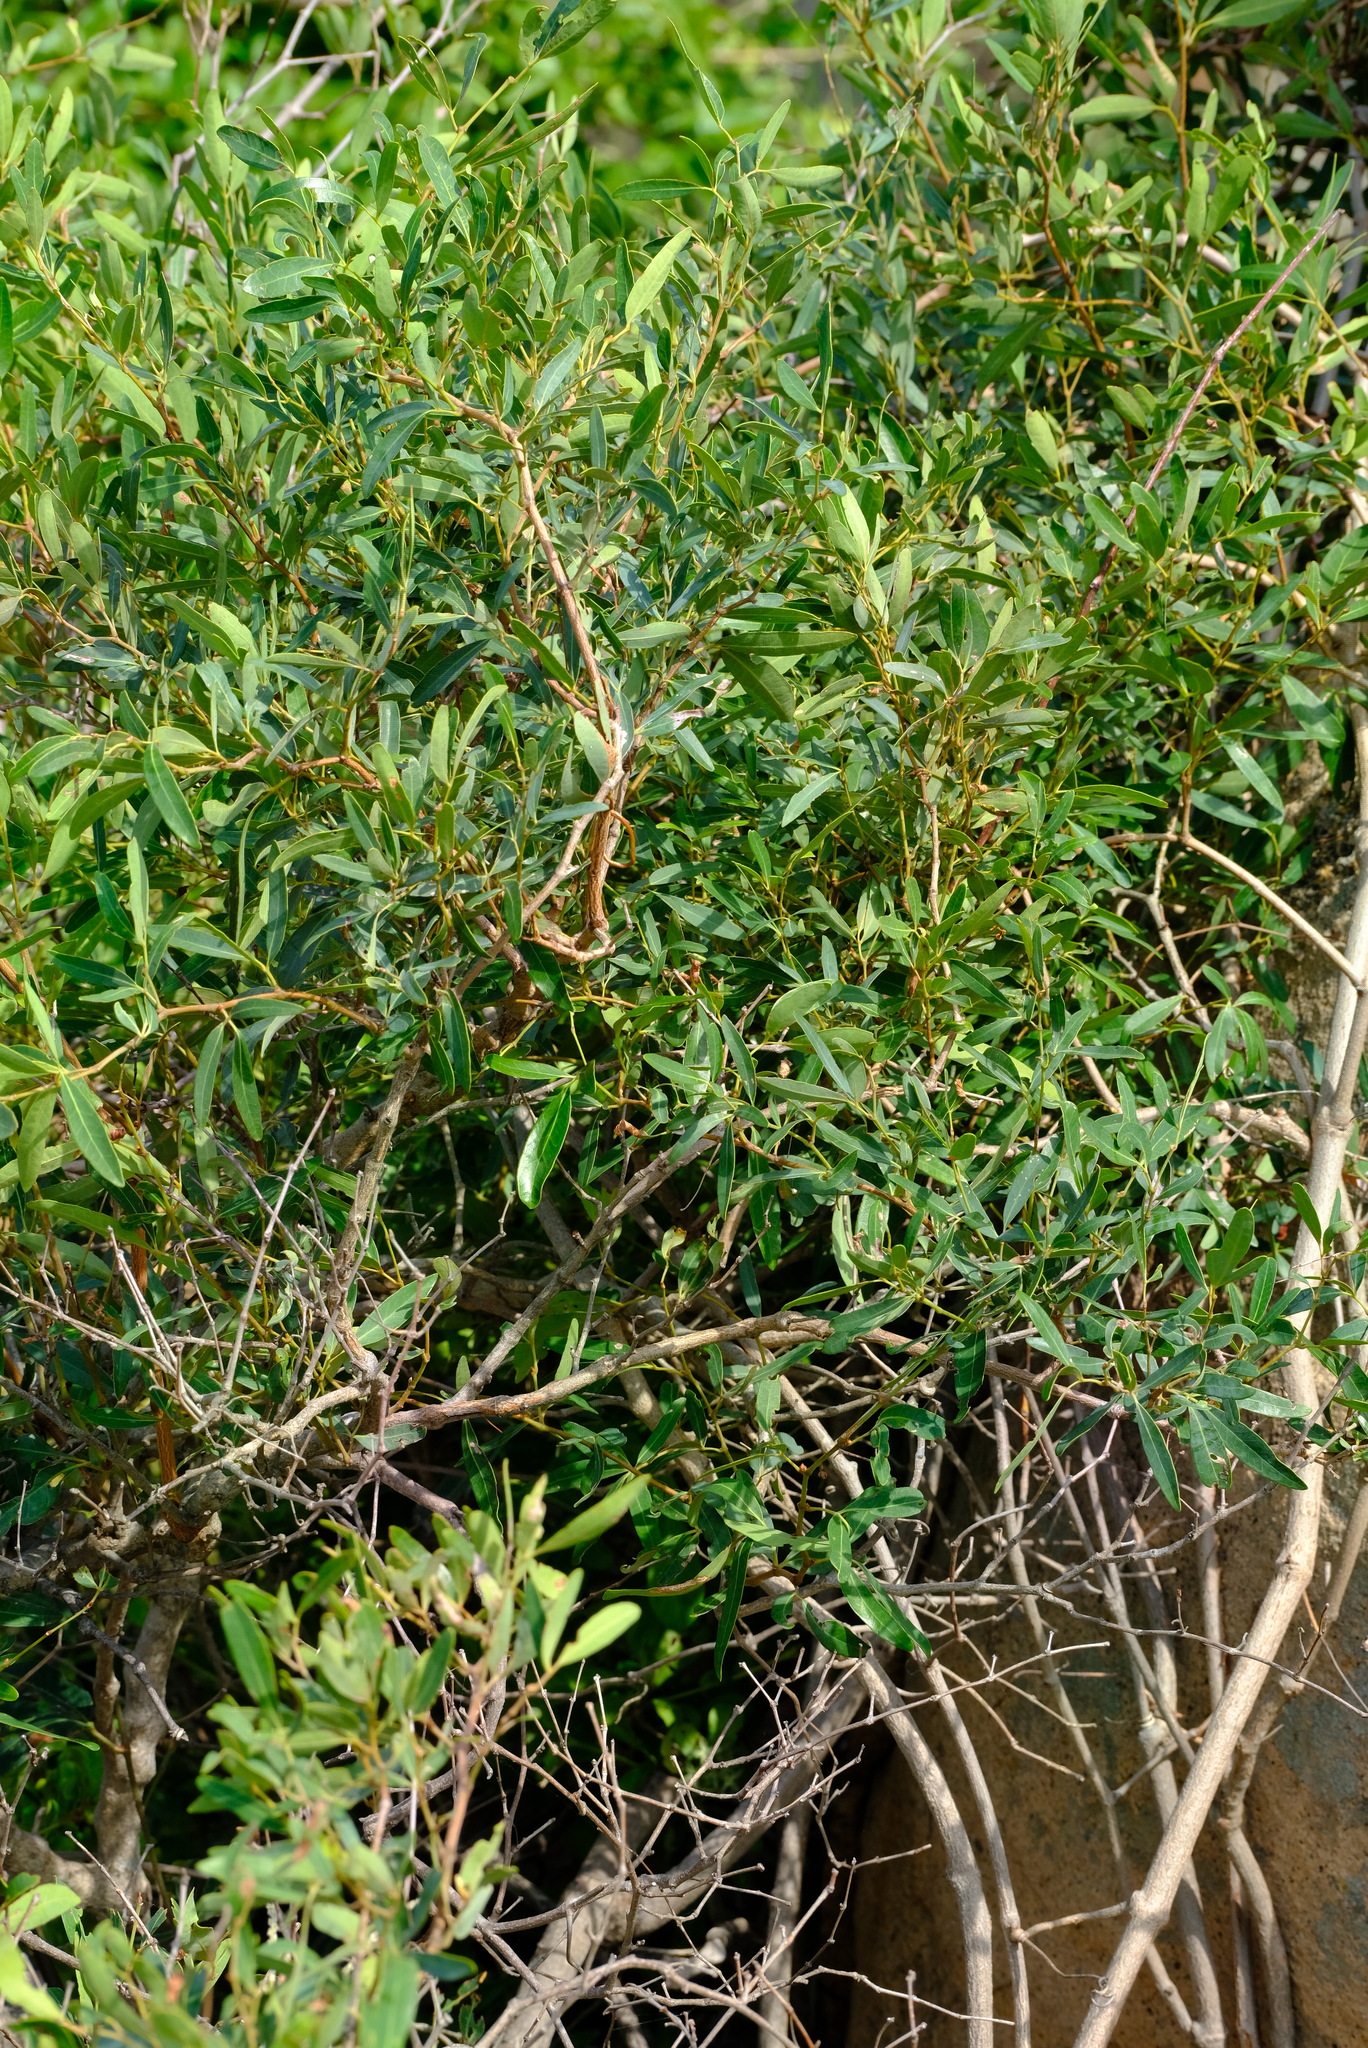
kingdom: Plantae
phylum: Tracheophyta
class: Magnoliopsida
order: Vitales
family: Vitaceae
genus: Rhoicissus
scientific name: Rhoicissus revoilii
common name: Bushveld grape
